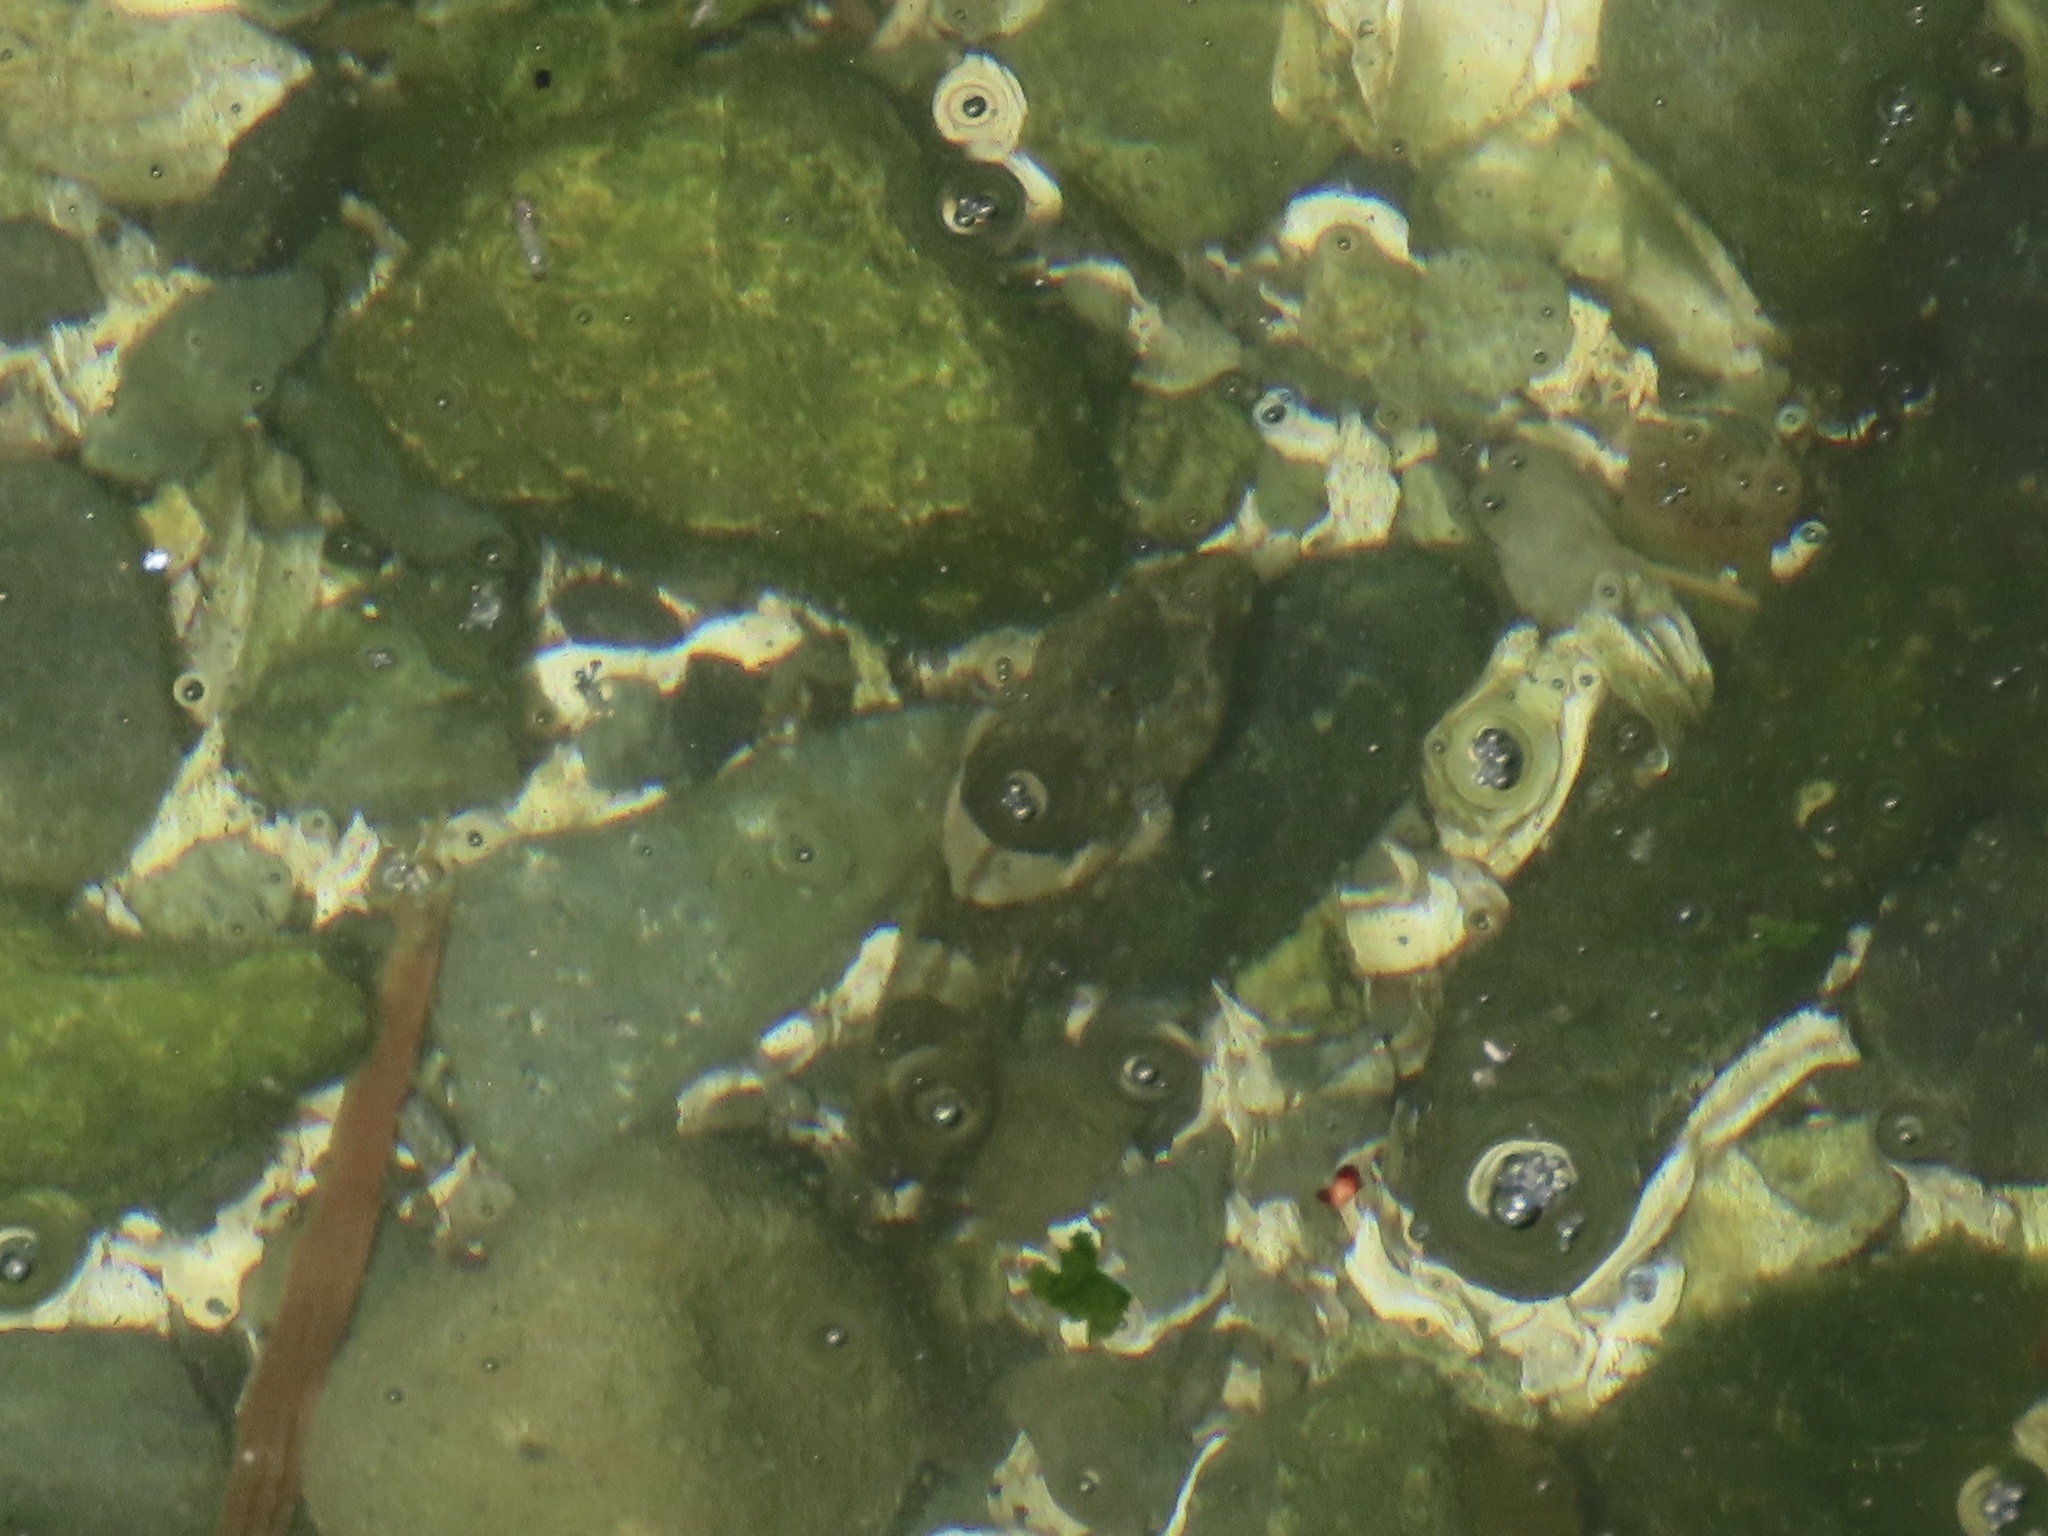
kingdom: Animalia
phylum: Chordata
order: Scorpaeniformes
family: Cottidae
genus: Oligocottus
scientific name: Oligocottus maculosus
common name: Tidepool sculpin
